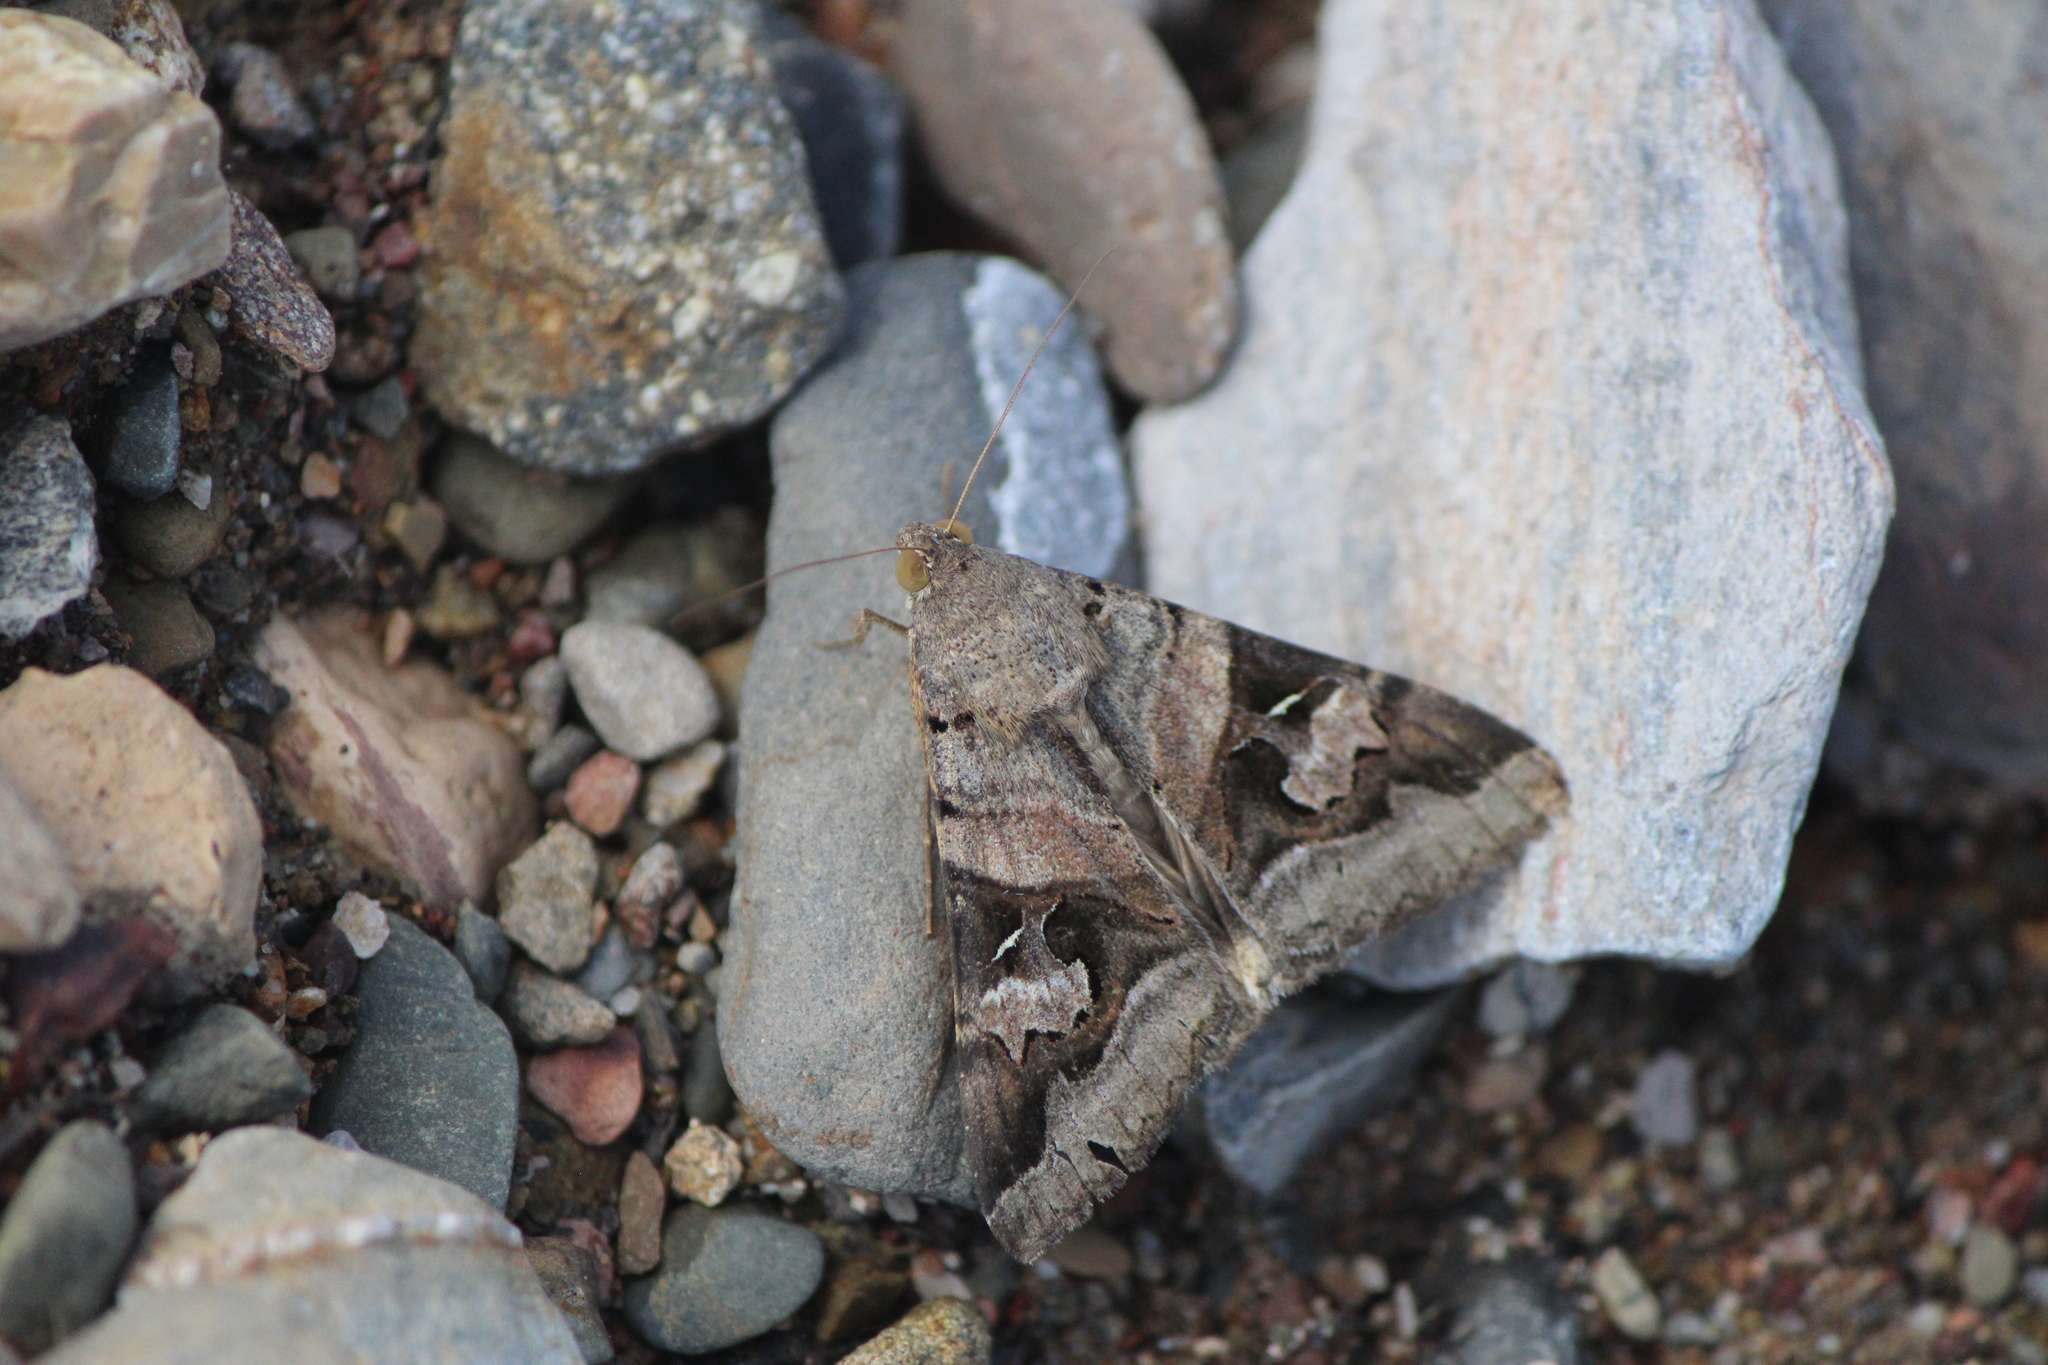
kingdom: Animalia
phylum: Arthropoda
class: Insecta
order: Lepidoptera
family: Erebidae
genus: Melipotis
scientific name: Melipotis indomita
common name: Moth
